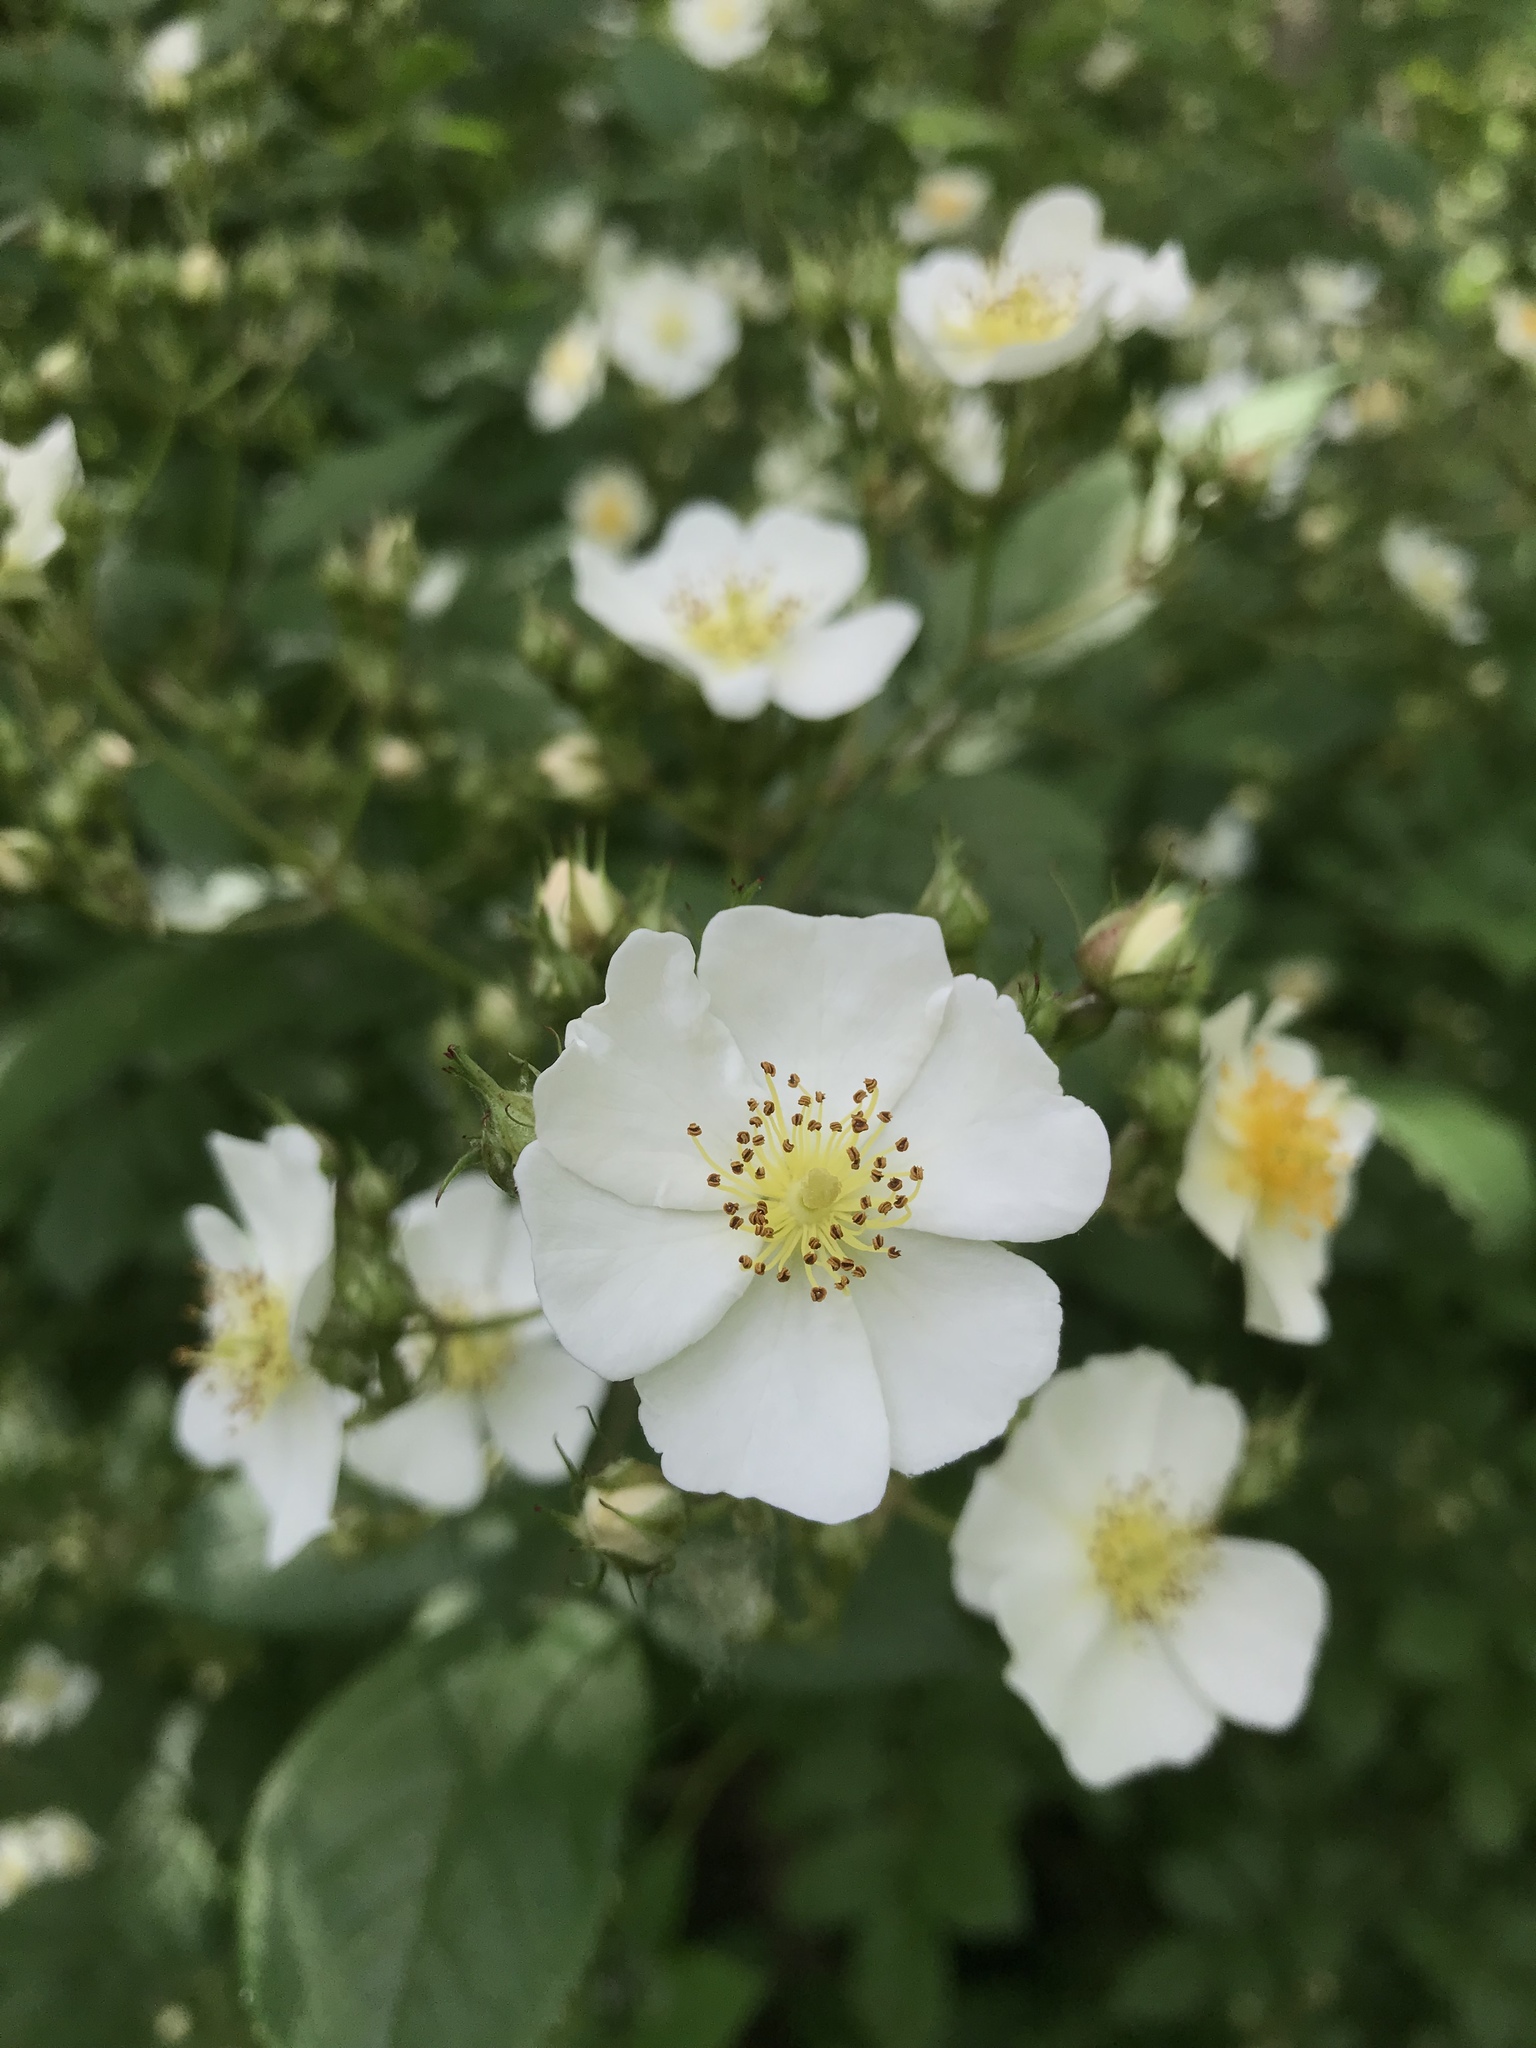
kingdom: Plantae
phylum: Tracheophyta
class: Magnoliopsida
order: Rosales
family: Rosaceae
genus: Rosa
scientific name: Rosa multiflora
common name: Multiflora rose
